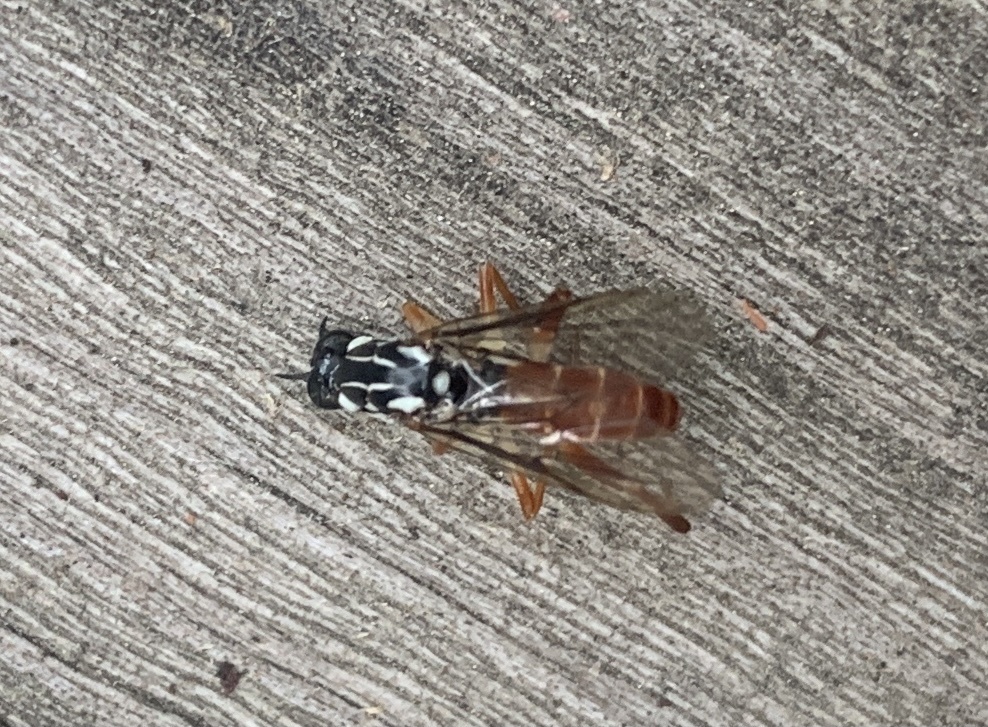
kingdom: Animalia
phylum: Arthropoda
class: Insecta
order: Diptera
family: Xylomyidae
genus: Xylomya
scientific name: Xylomya americana
